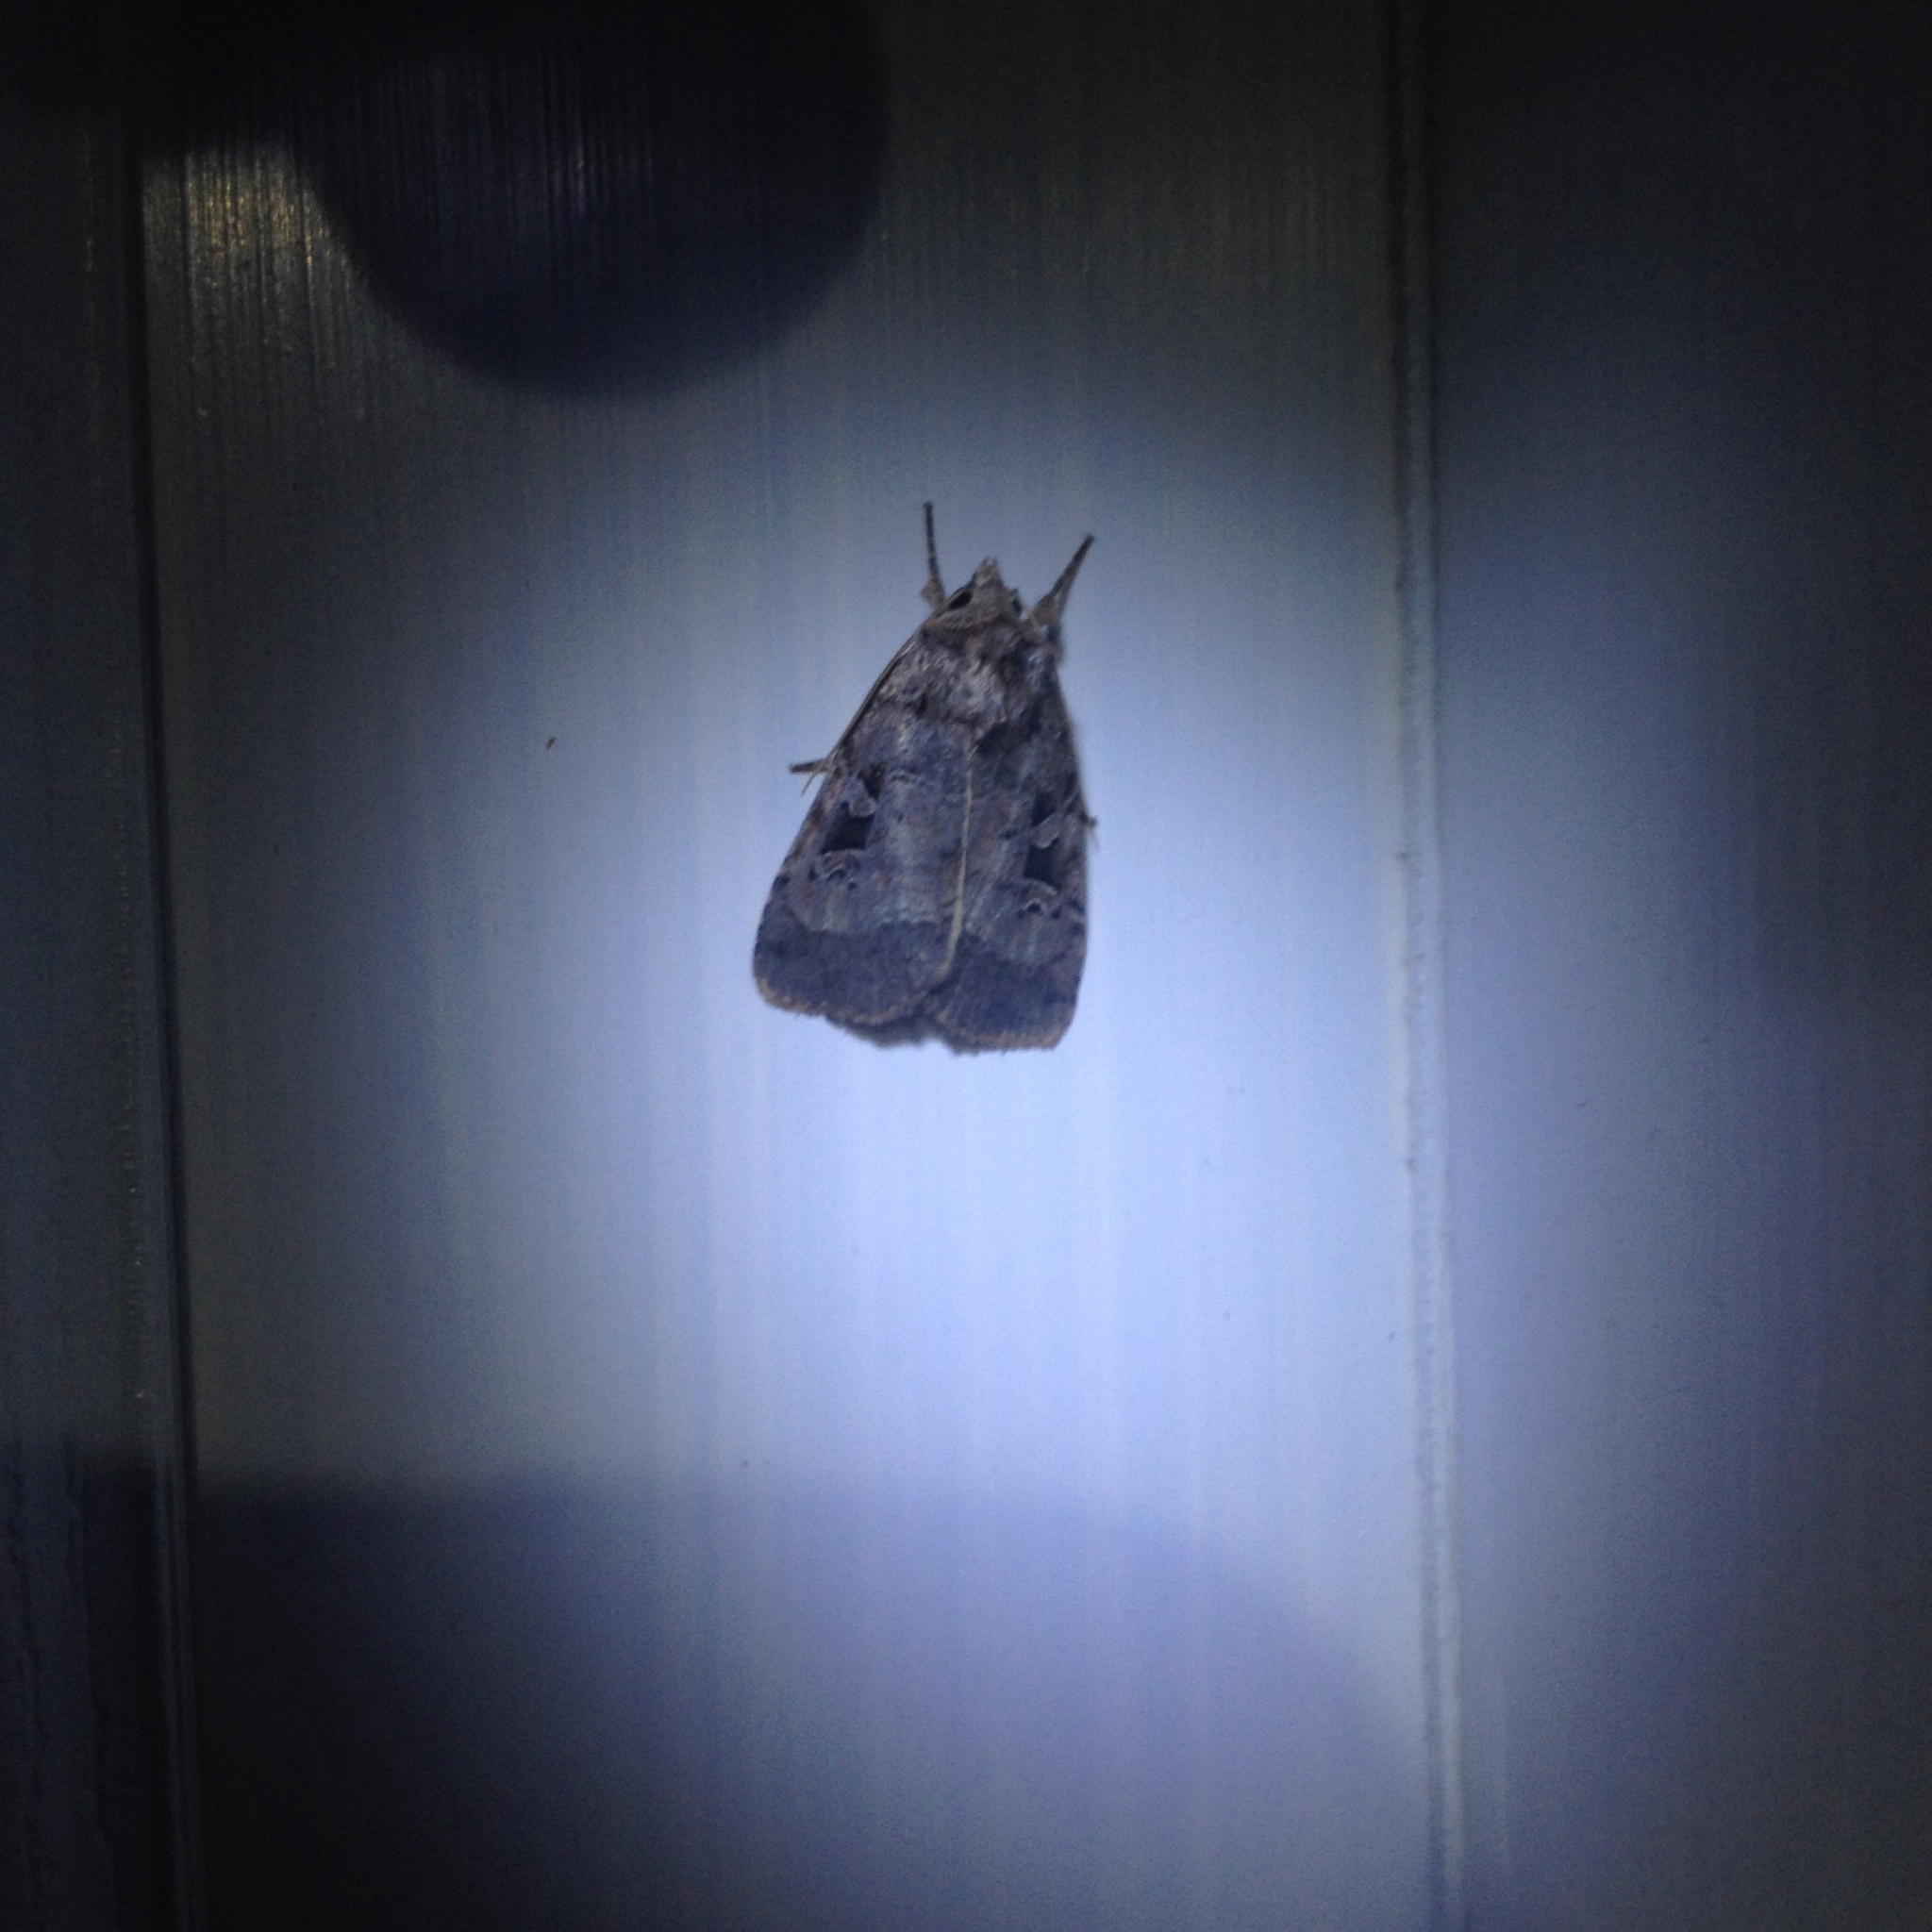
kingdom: Animalia
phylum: Arthropoda
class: Insecta
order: Lepidoptera
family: Noctuidae
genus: Xestia
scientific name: Xestia normaniana
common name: Norman's dart moth
